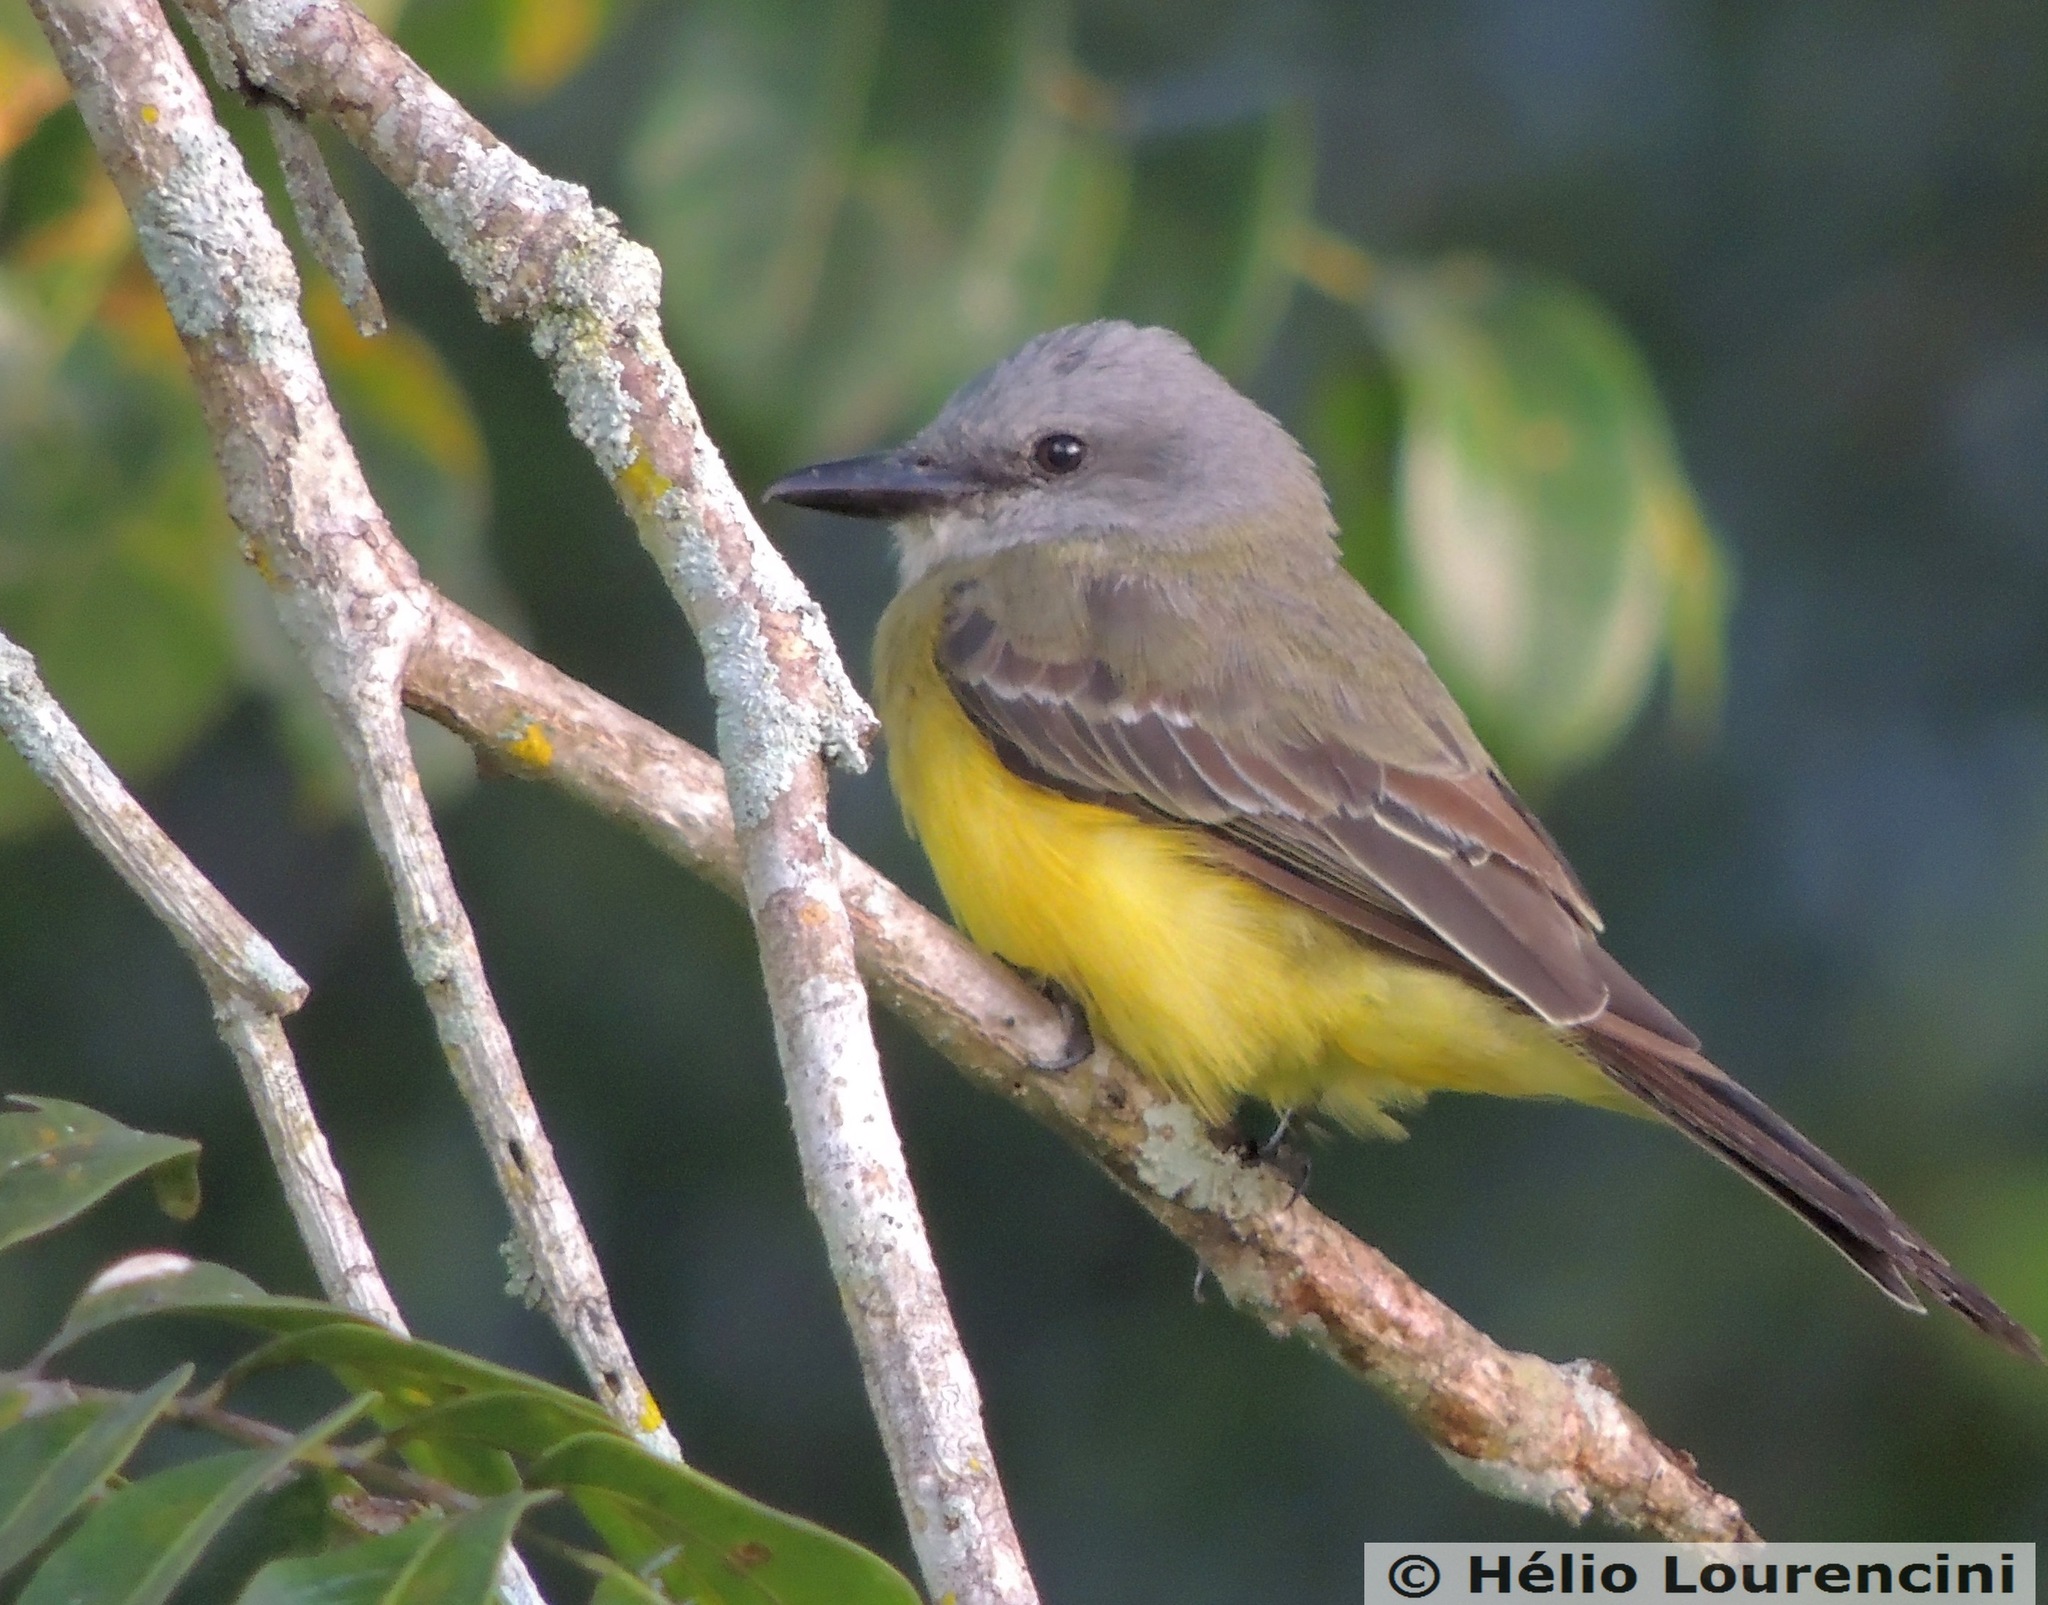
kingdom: Animalia
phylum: Chordata
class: Aves
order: Passeriformes
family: Tyrannidae
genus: Tyrannus
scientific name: Tyrannus melancholicus
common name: Tropical kingbird
